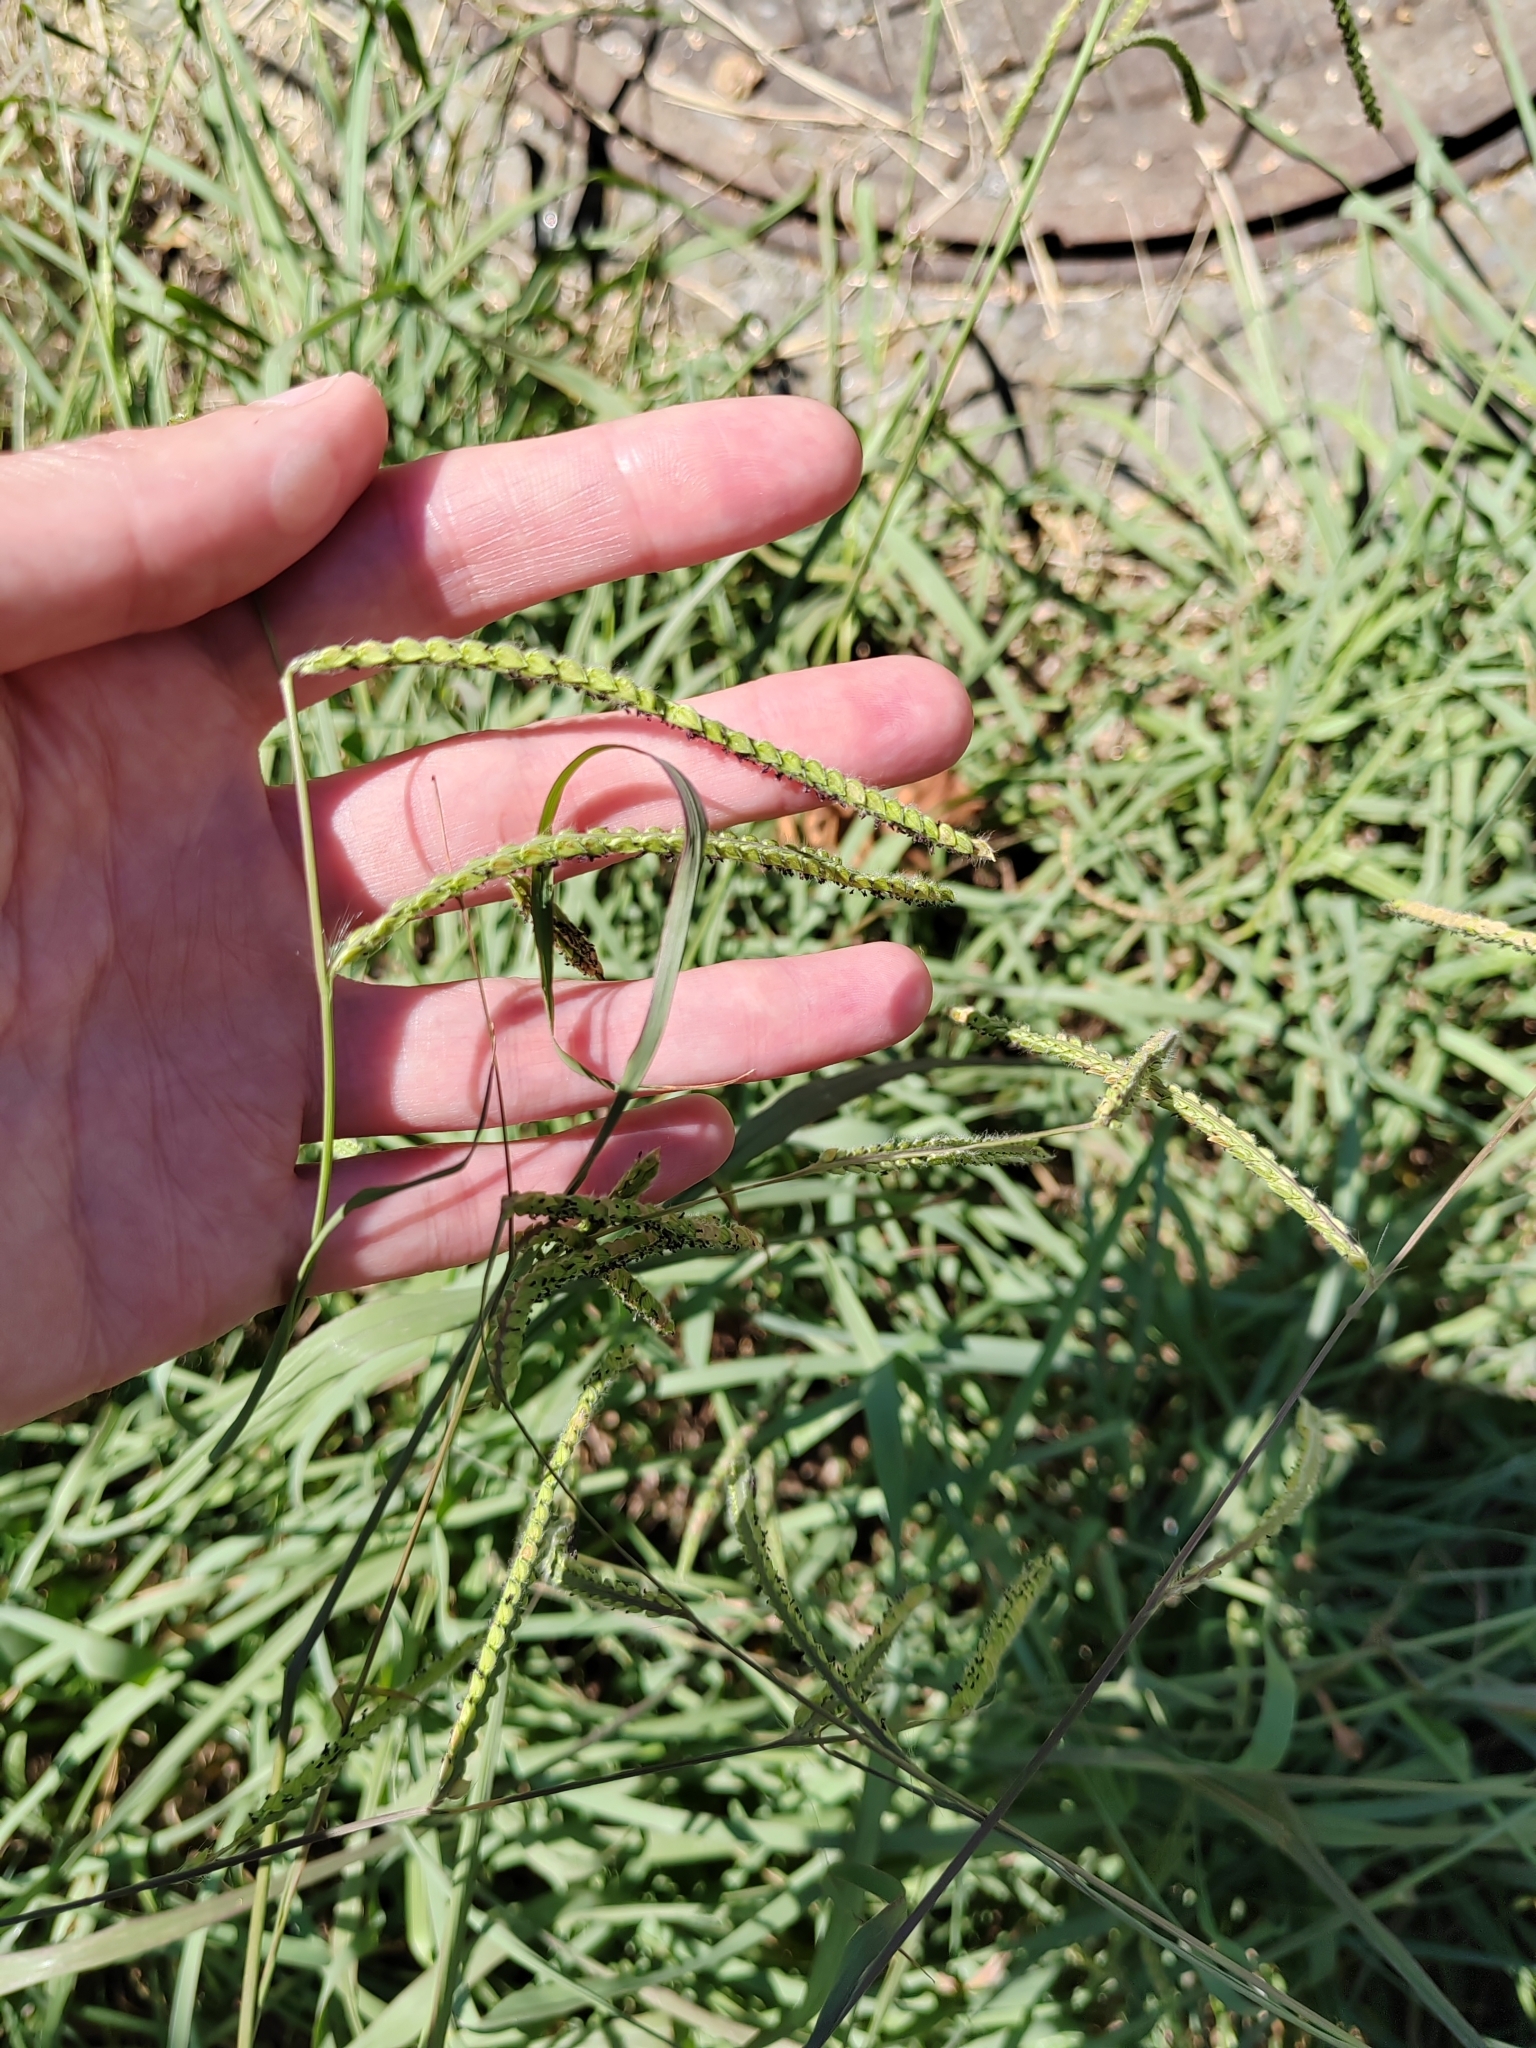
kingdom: Plantae
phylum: Tracheophyta
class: Liliopsida
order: Poales
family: Poaceae
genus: Paspalum
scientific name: Paspalum dilatatum
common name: Dallisgrass
